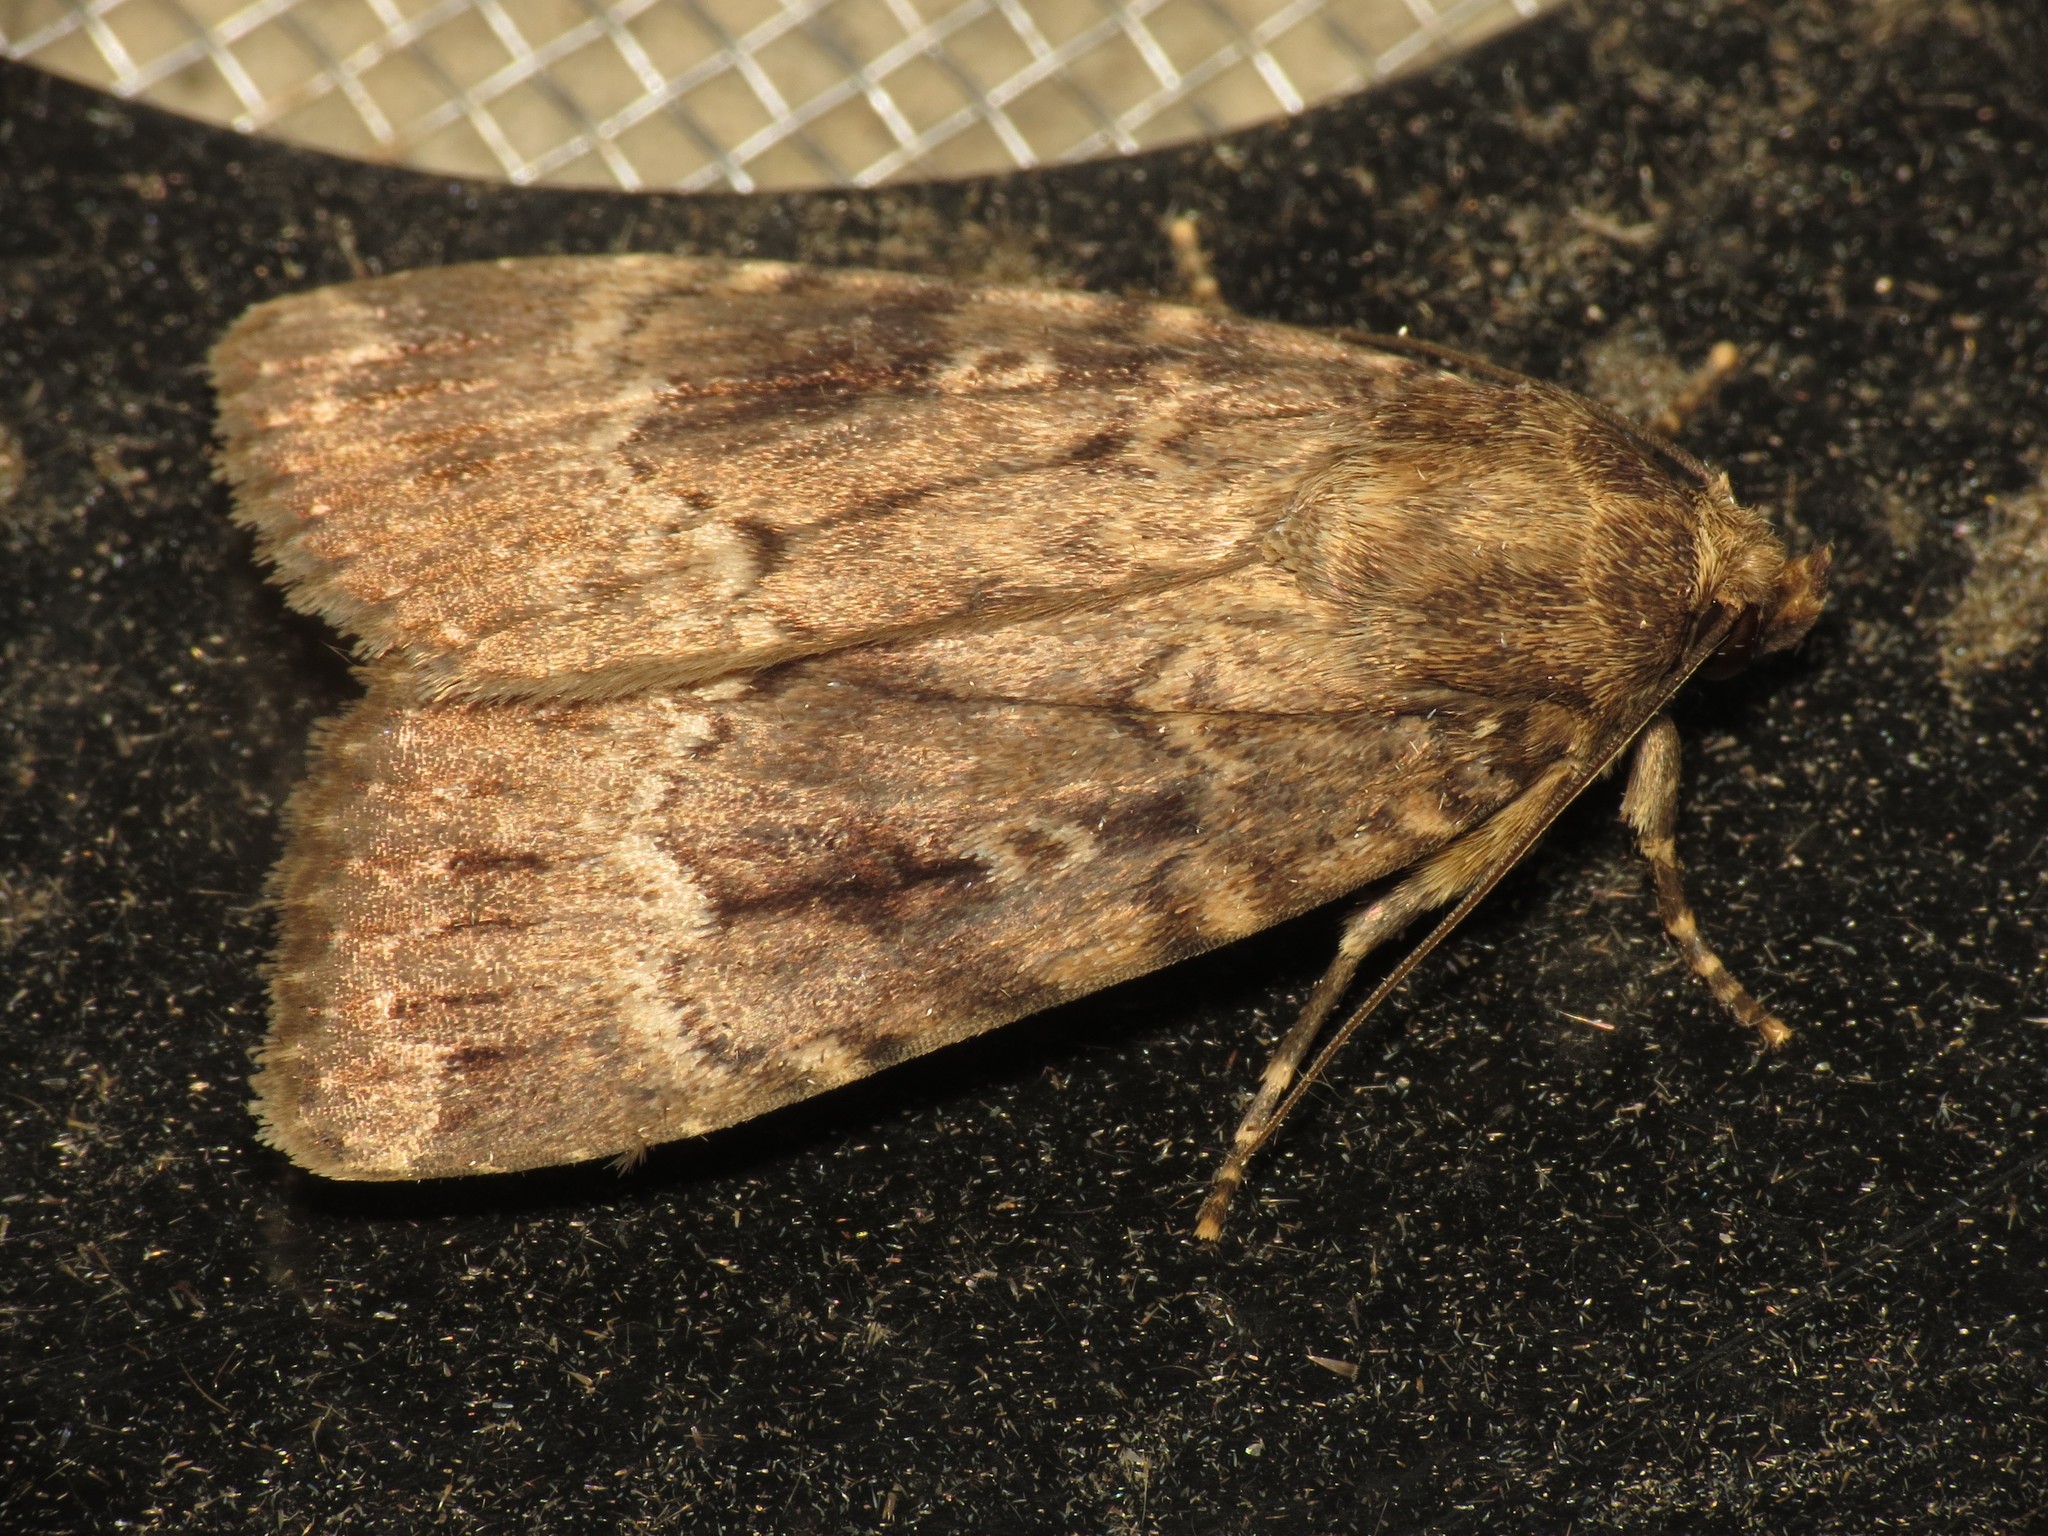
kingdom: Animalia
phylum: Arthropoda
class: Insecta
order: Lepidoptera
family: Noctuidae
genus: Amphipyra
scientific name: Amphipyra berbera
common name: Svensson's copper underwing
